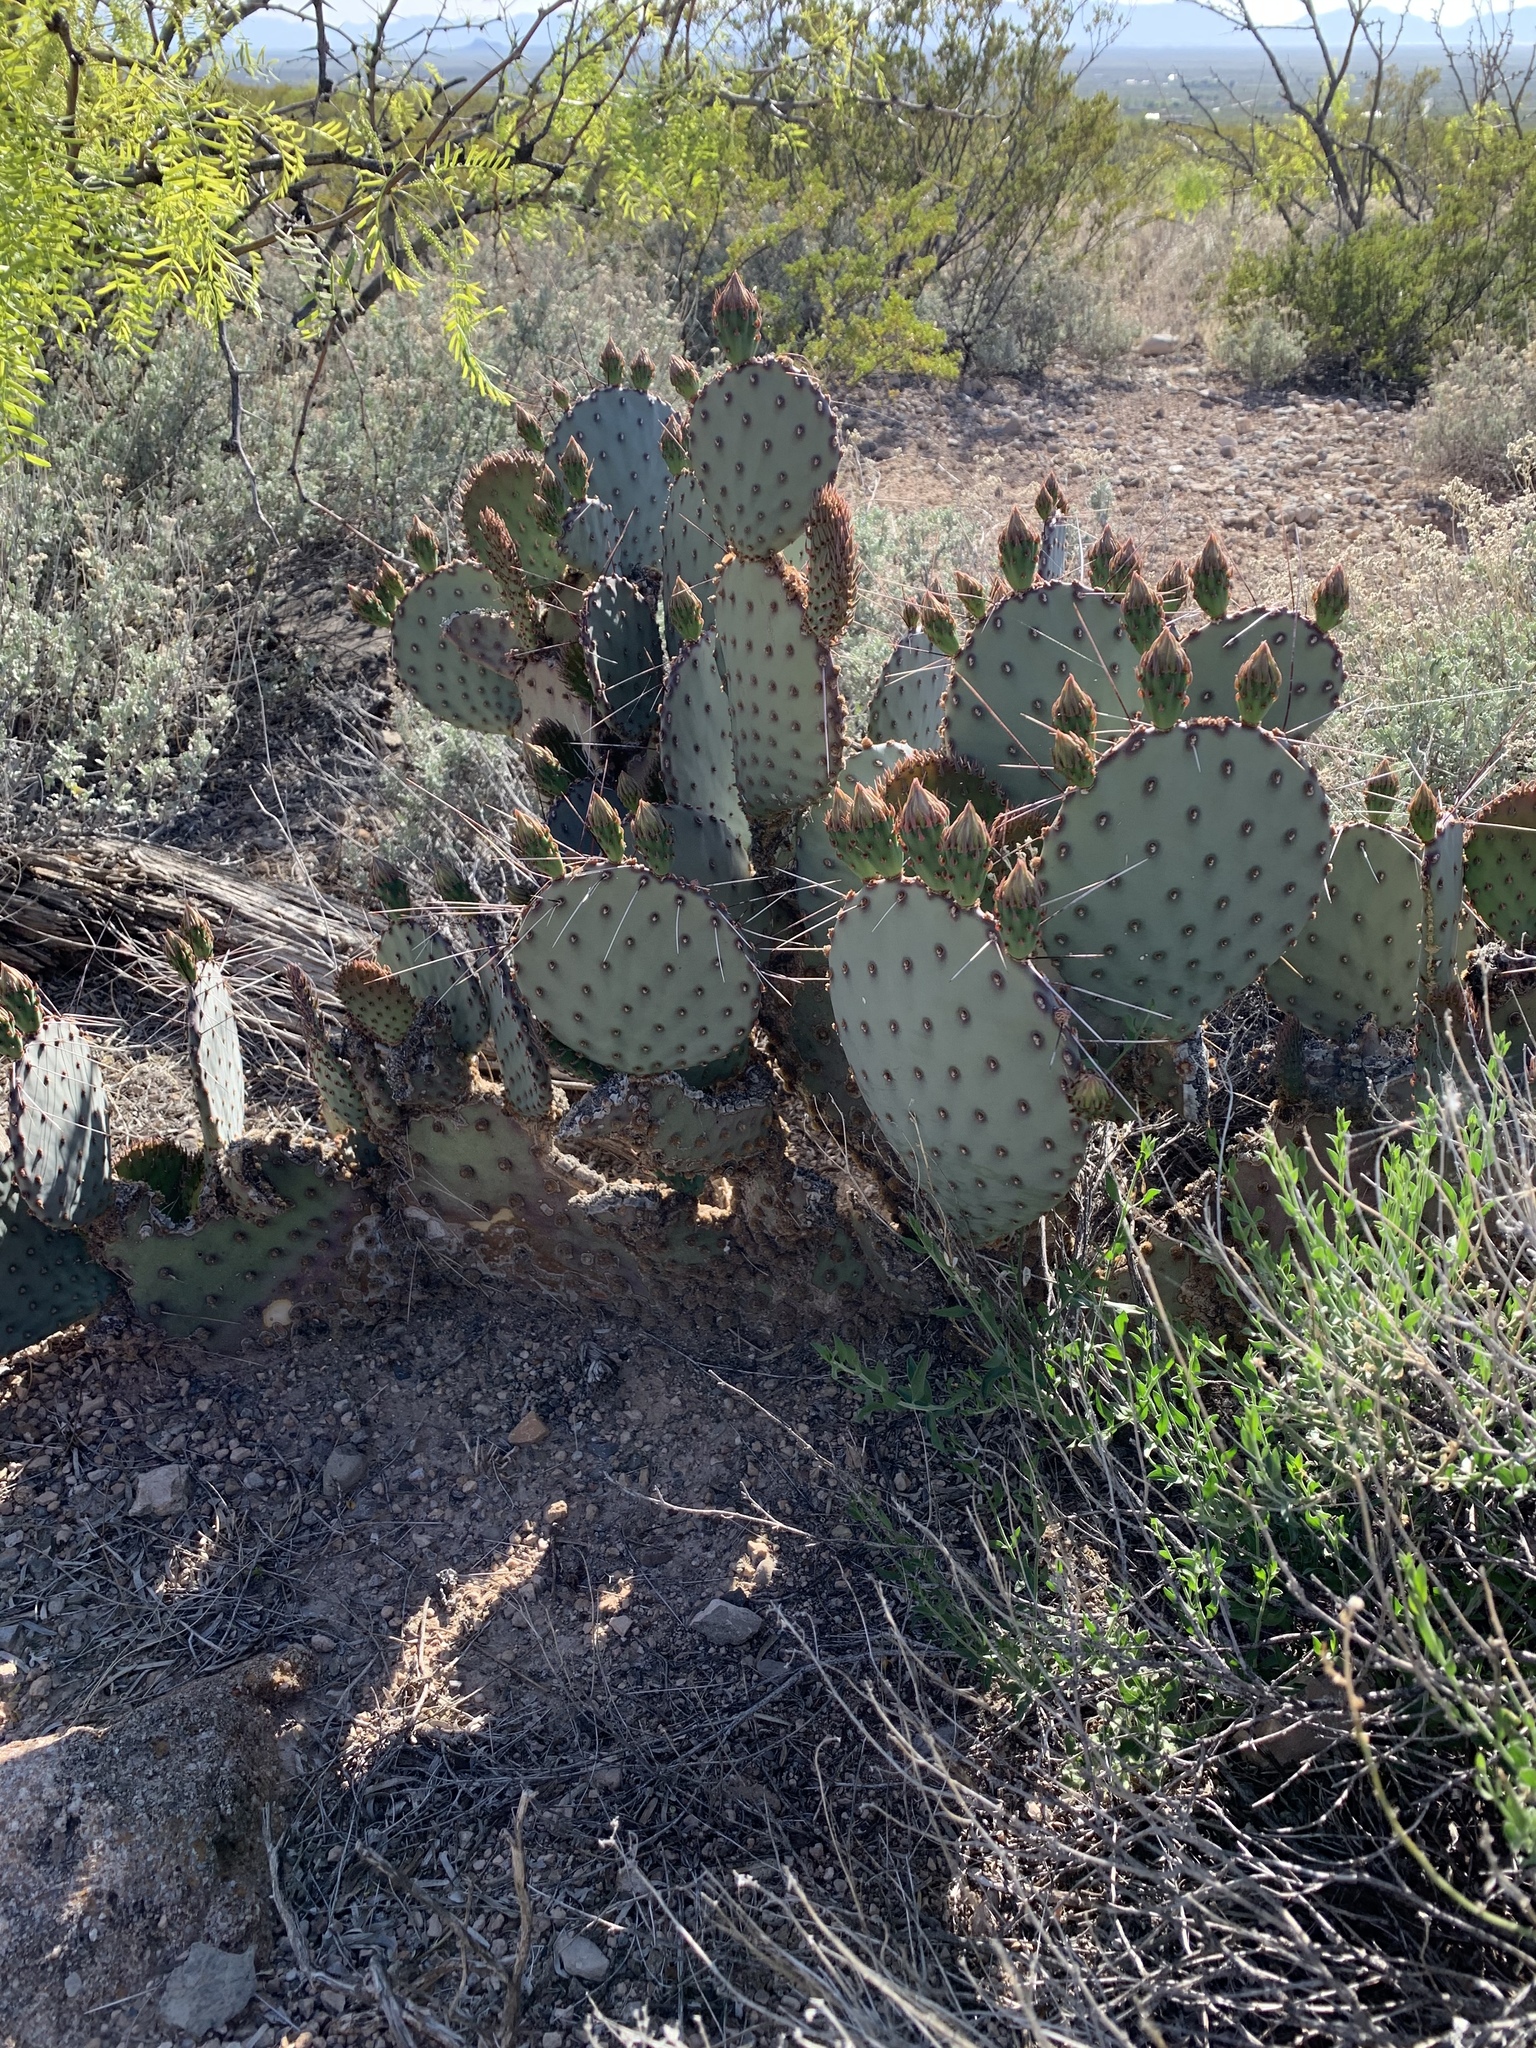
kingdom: Plantae
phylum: Tracheophyta
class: Magnoliopsida
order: Caryophyllales
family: Cactaceae
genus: Opuntia
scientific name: Opuntia macrocentra
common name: Purple prickly-pear
